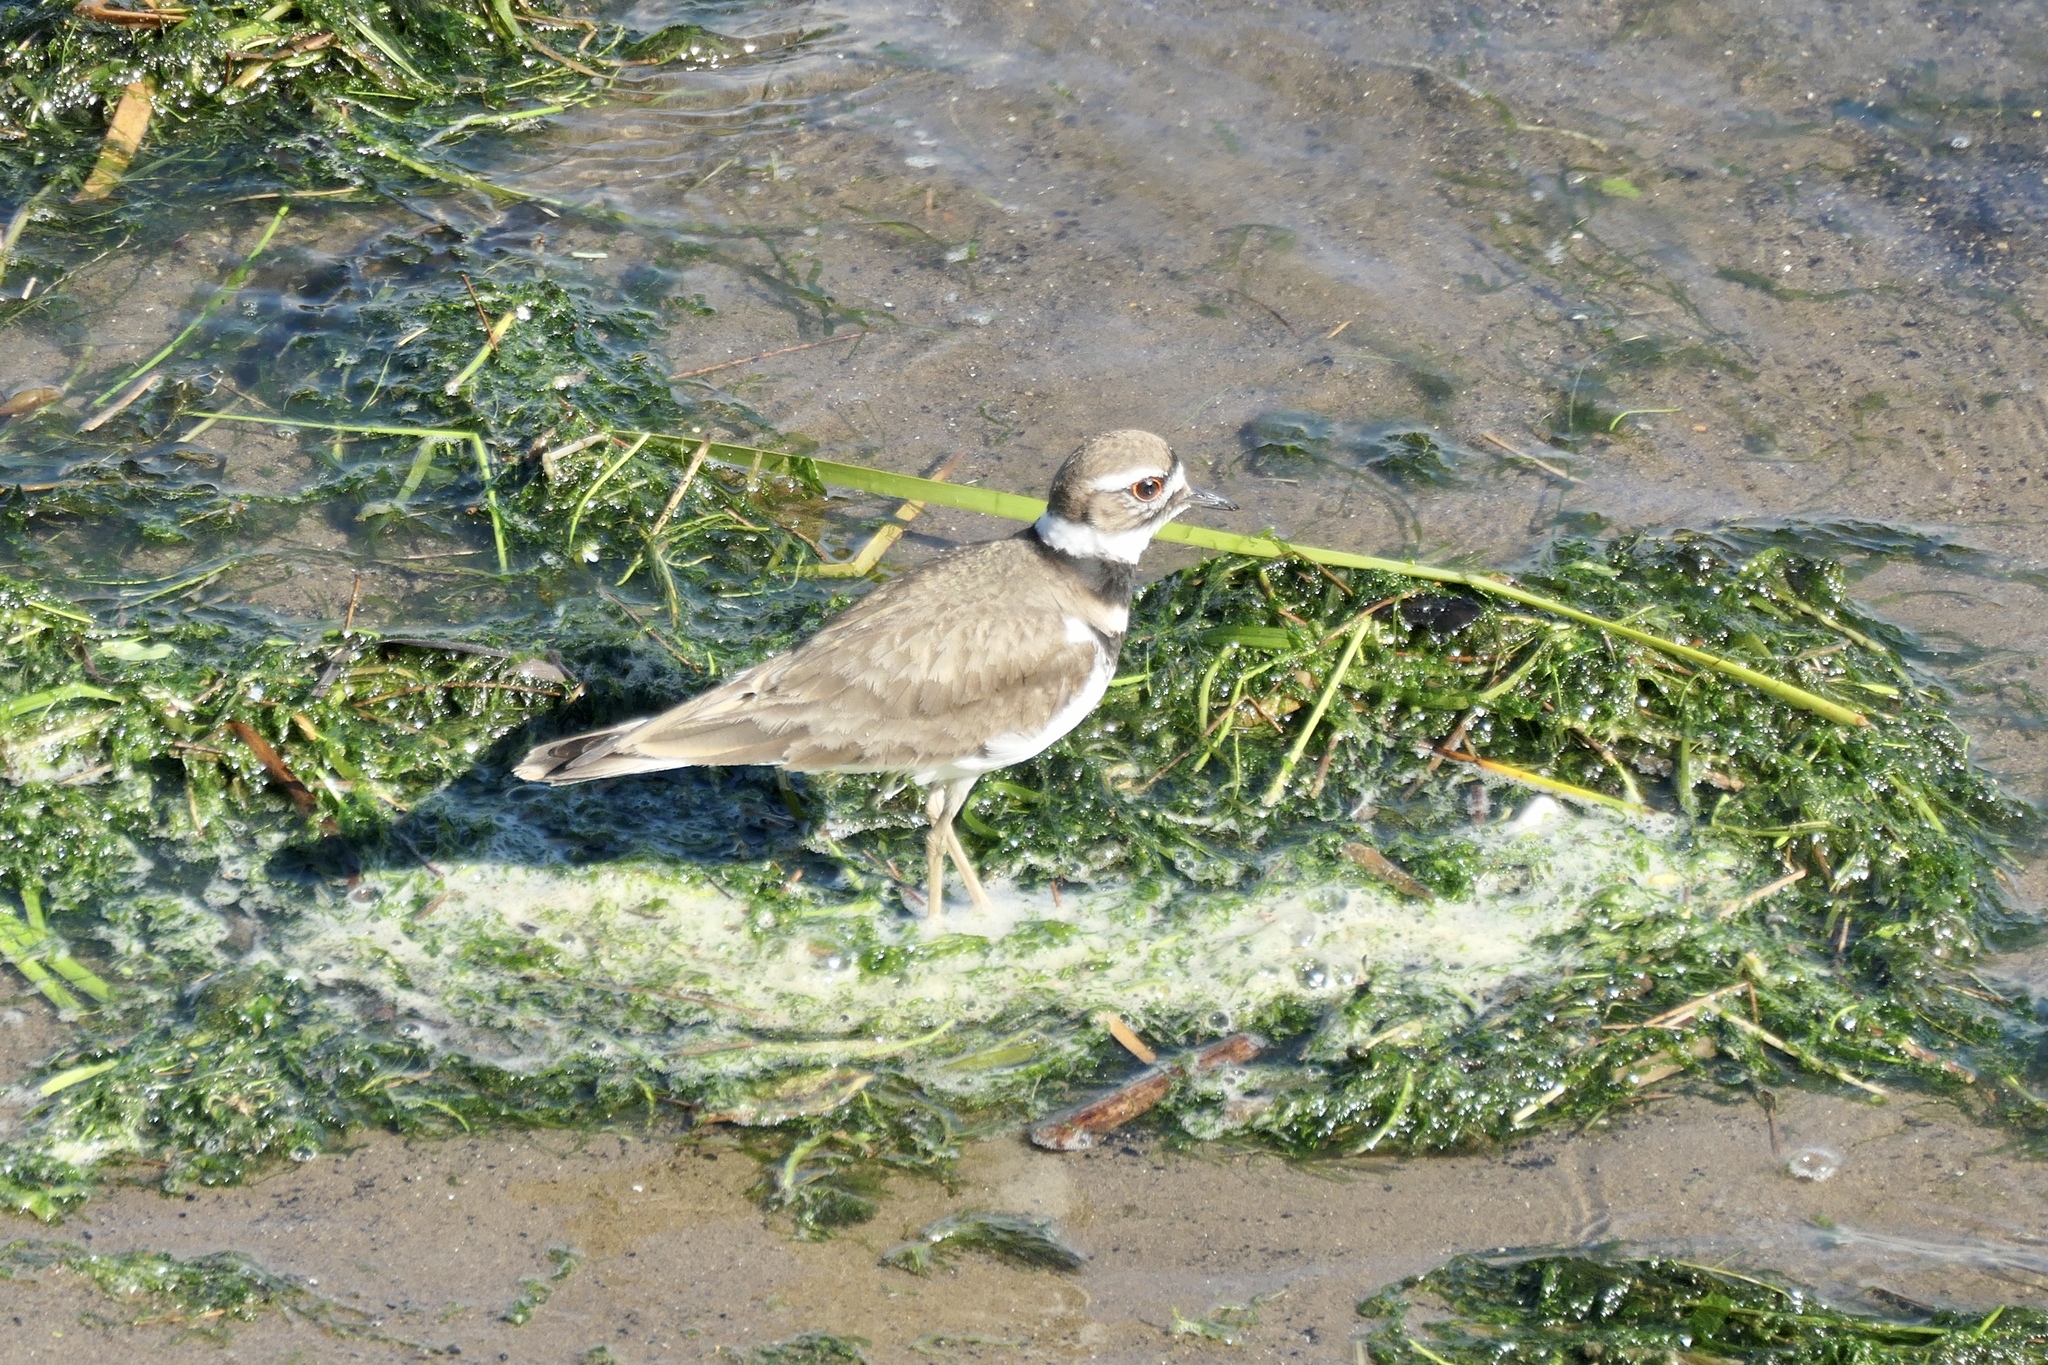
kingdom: Animalia
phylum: Chordata
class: Aves
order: Charadriiformes
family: Charadriidae
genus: Charadrius
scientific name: Charadrius vociferus
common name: Killdeer
